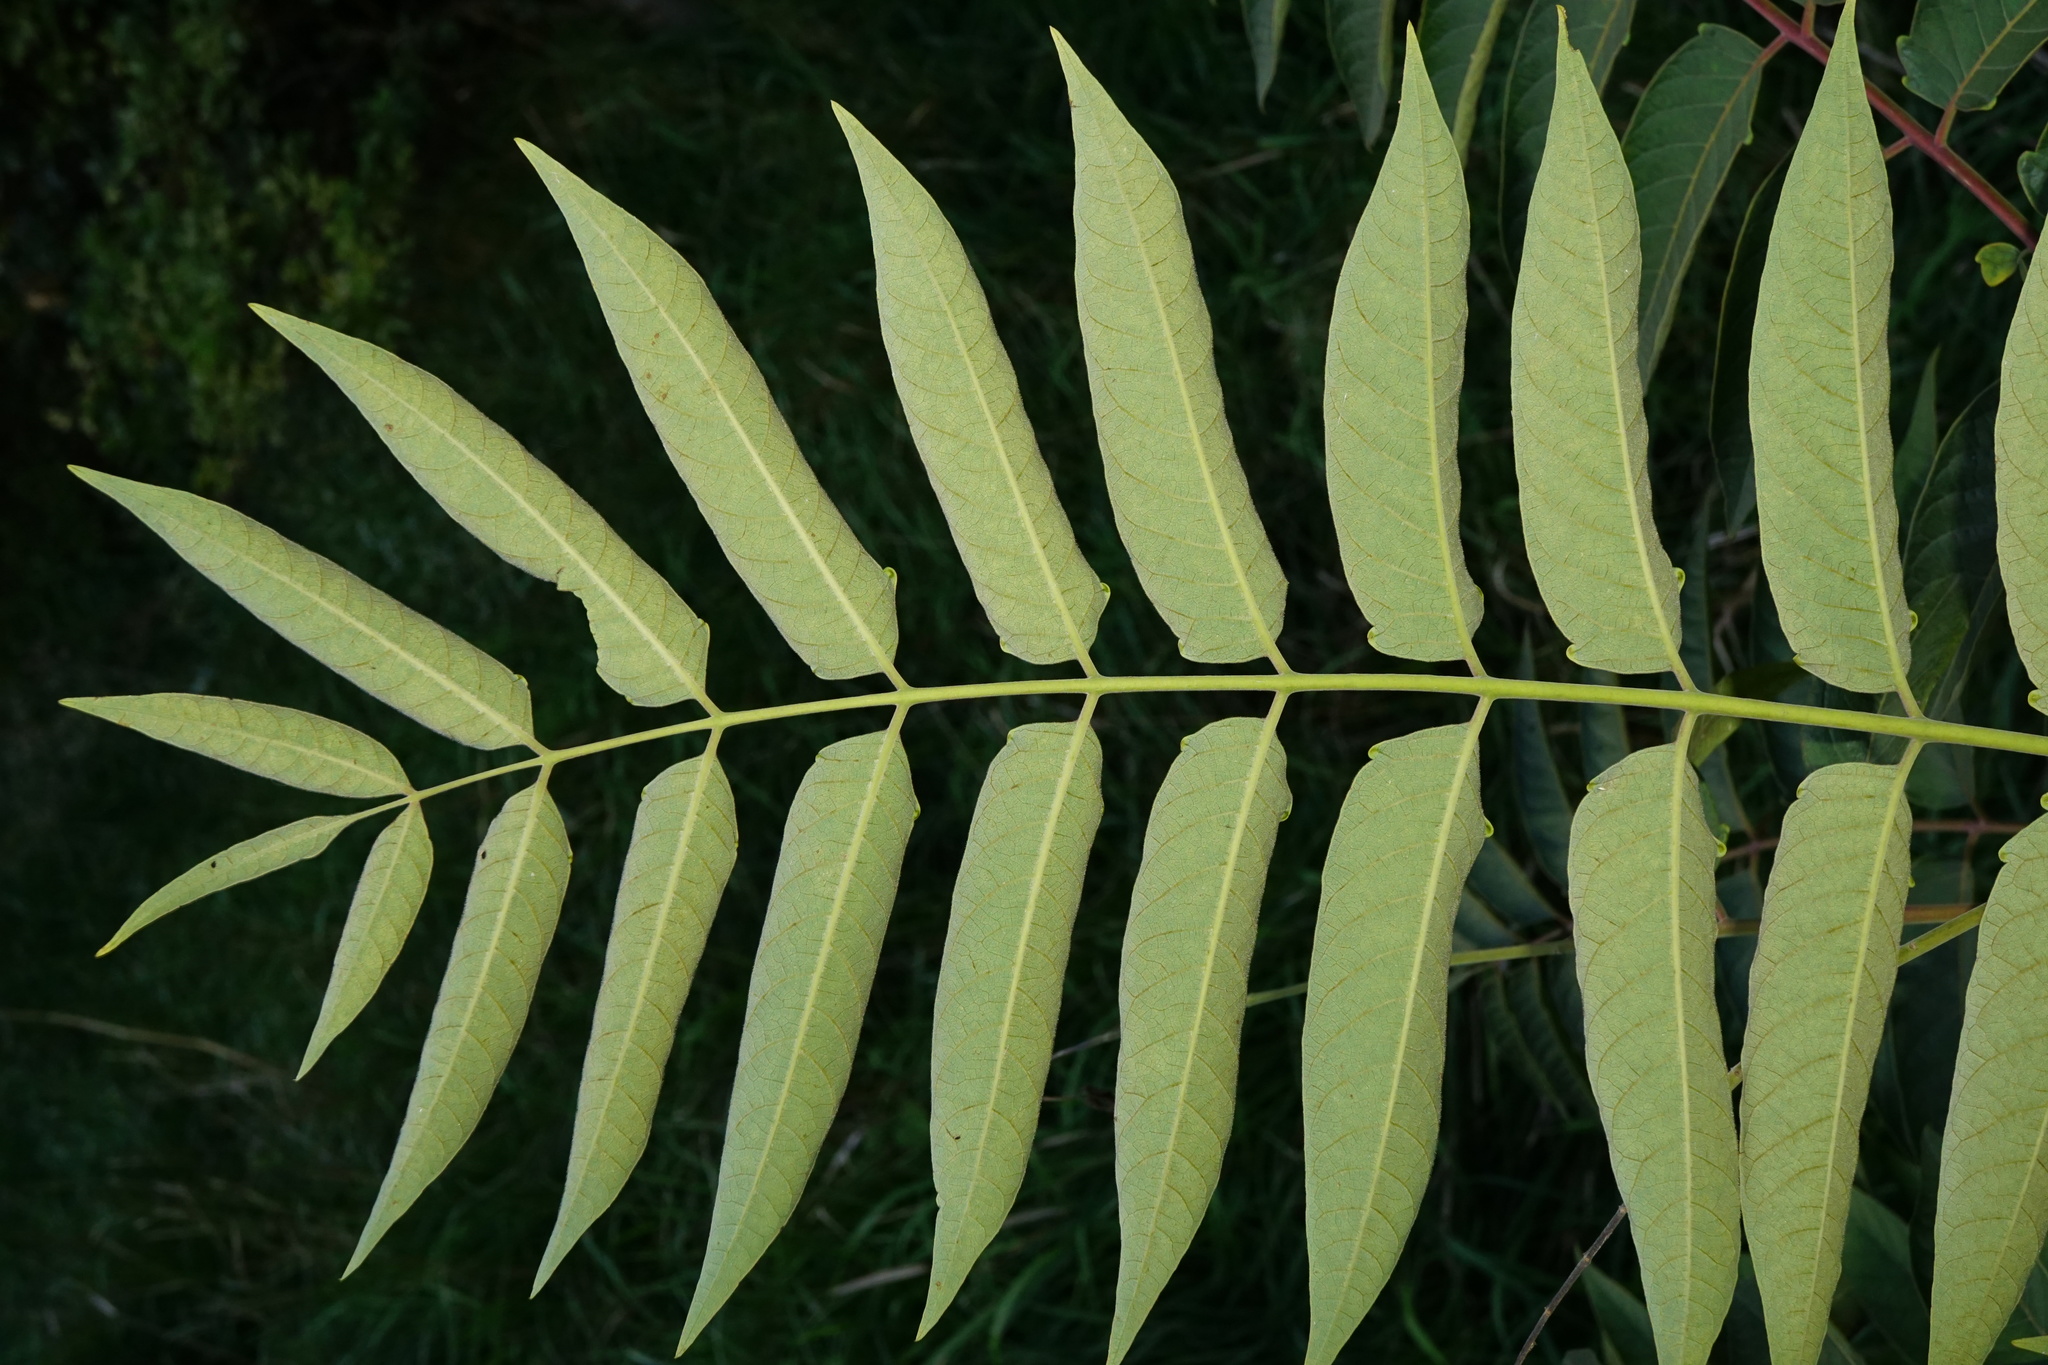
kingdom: Plantae
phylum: Tracheophyta
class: Magnoliopsida
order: Sapindales
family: Simaroubaceae
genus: Ailanthus
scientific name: Ailanthus altissima
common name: Tree-of-heaven
